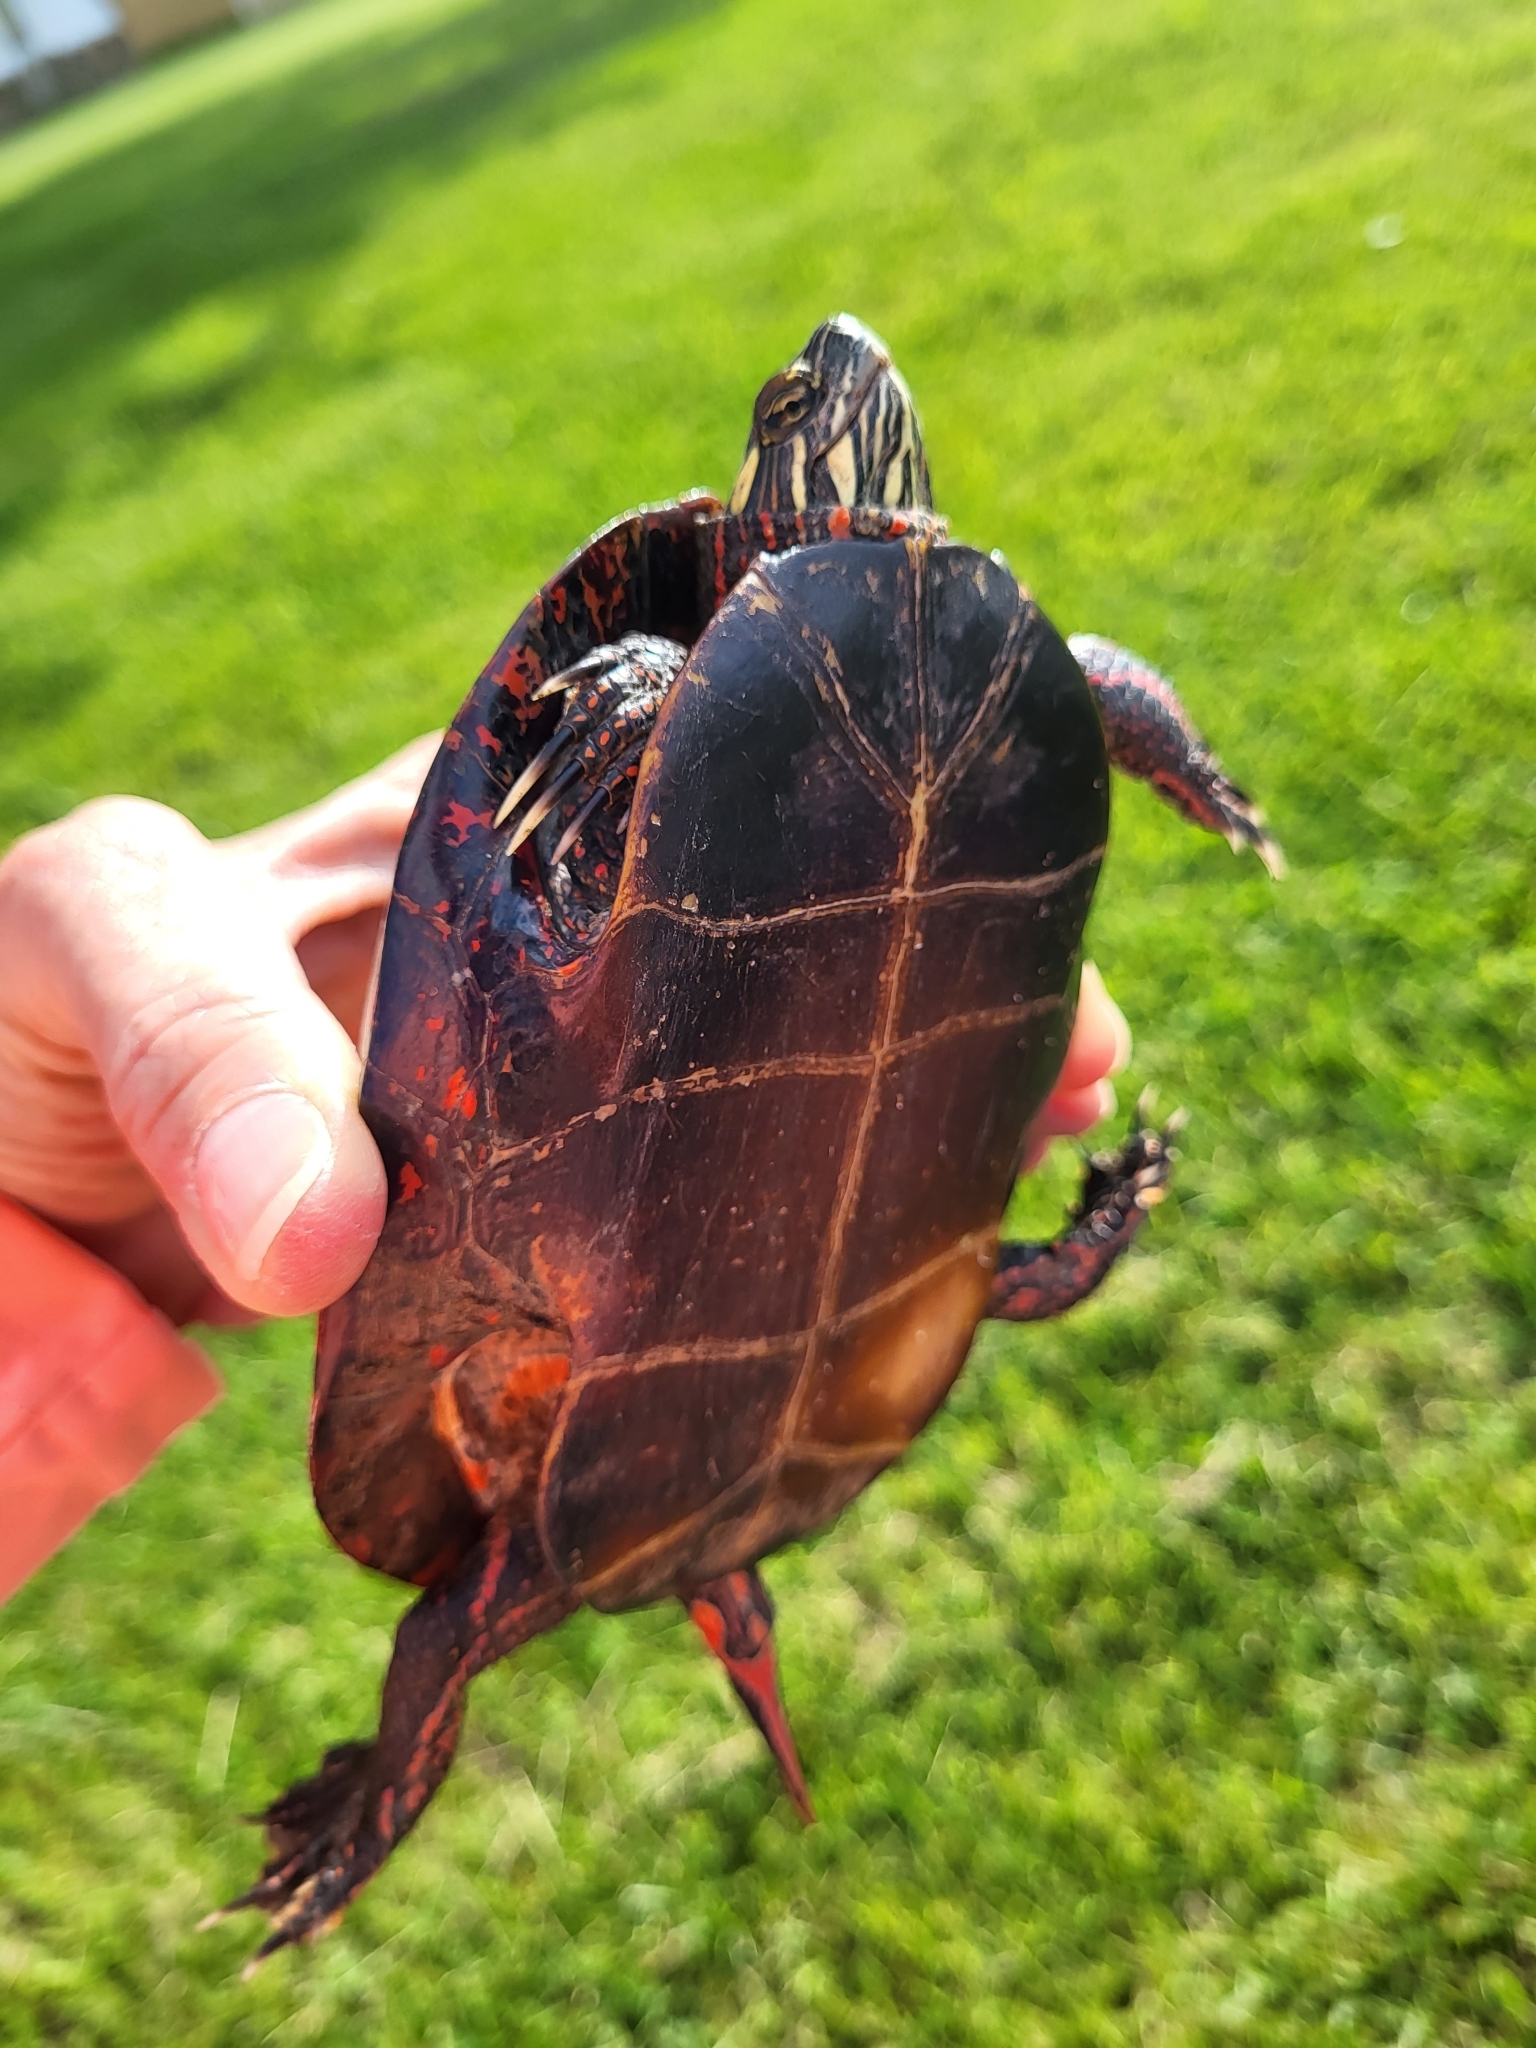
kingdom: Animalia
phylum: Chordata
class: Testudines
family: Emydidae
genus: Chrysemys
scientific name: Chrysemys picta
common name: Painted turtle
